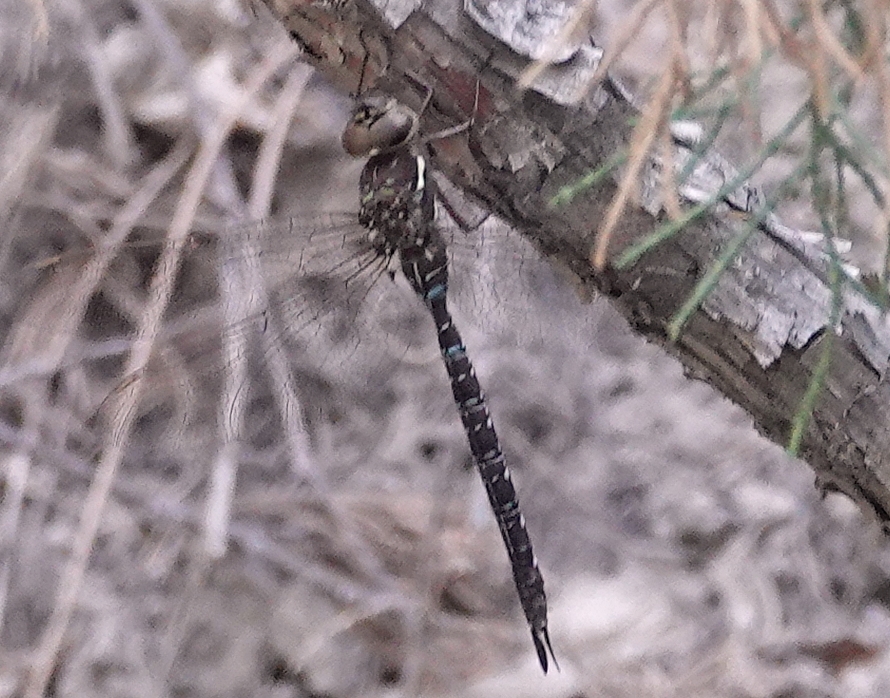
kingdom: Animalia
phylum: Arthropoda
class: Insecta
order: Odonata
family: Aeshnidae
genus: Aeshna
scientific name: Aeshna umbrosa
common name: Shadow darner
